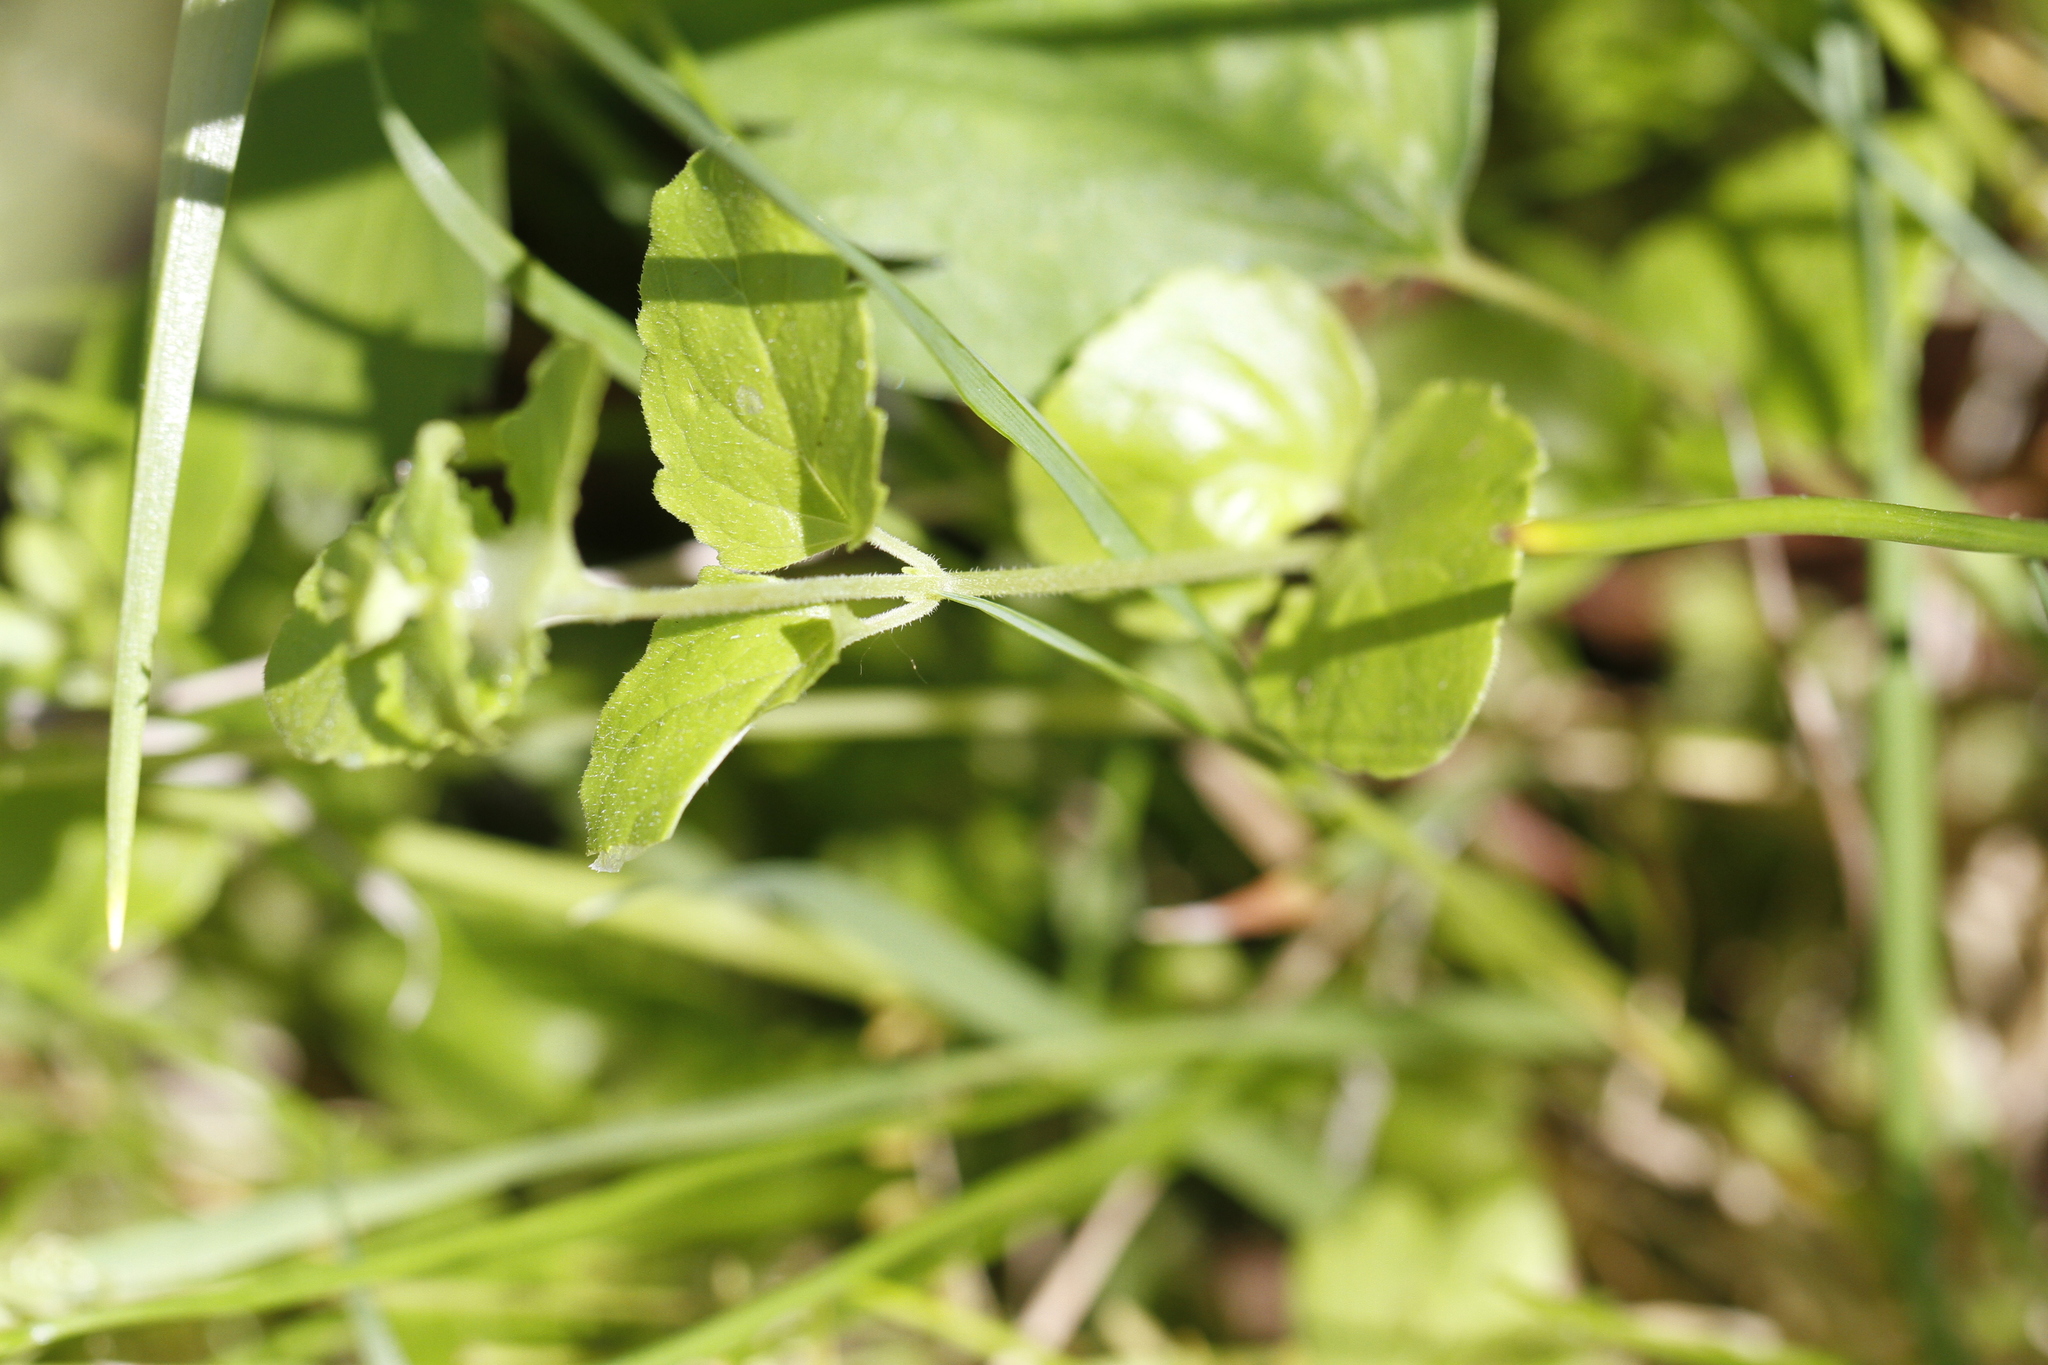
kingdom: Plantae
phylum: Tracheophyta
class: Magnoliopsida
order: Lamiales
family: Lamiaceae
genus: Micromeria
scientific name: Micromeria douglasii
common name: Yerba buena
